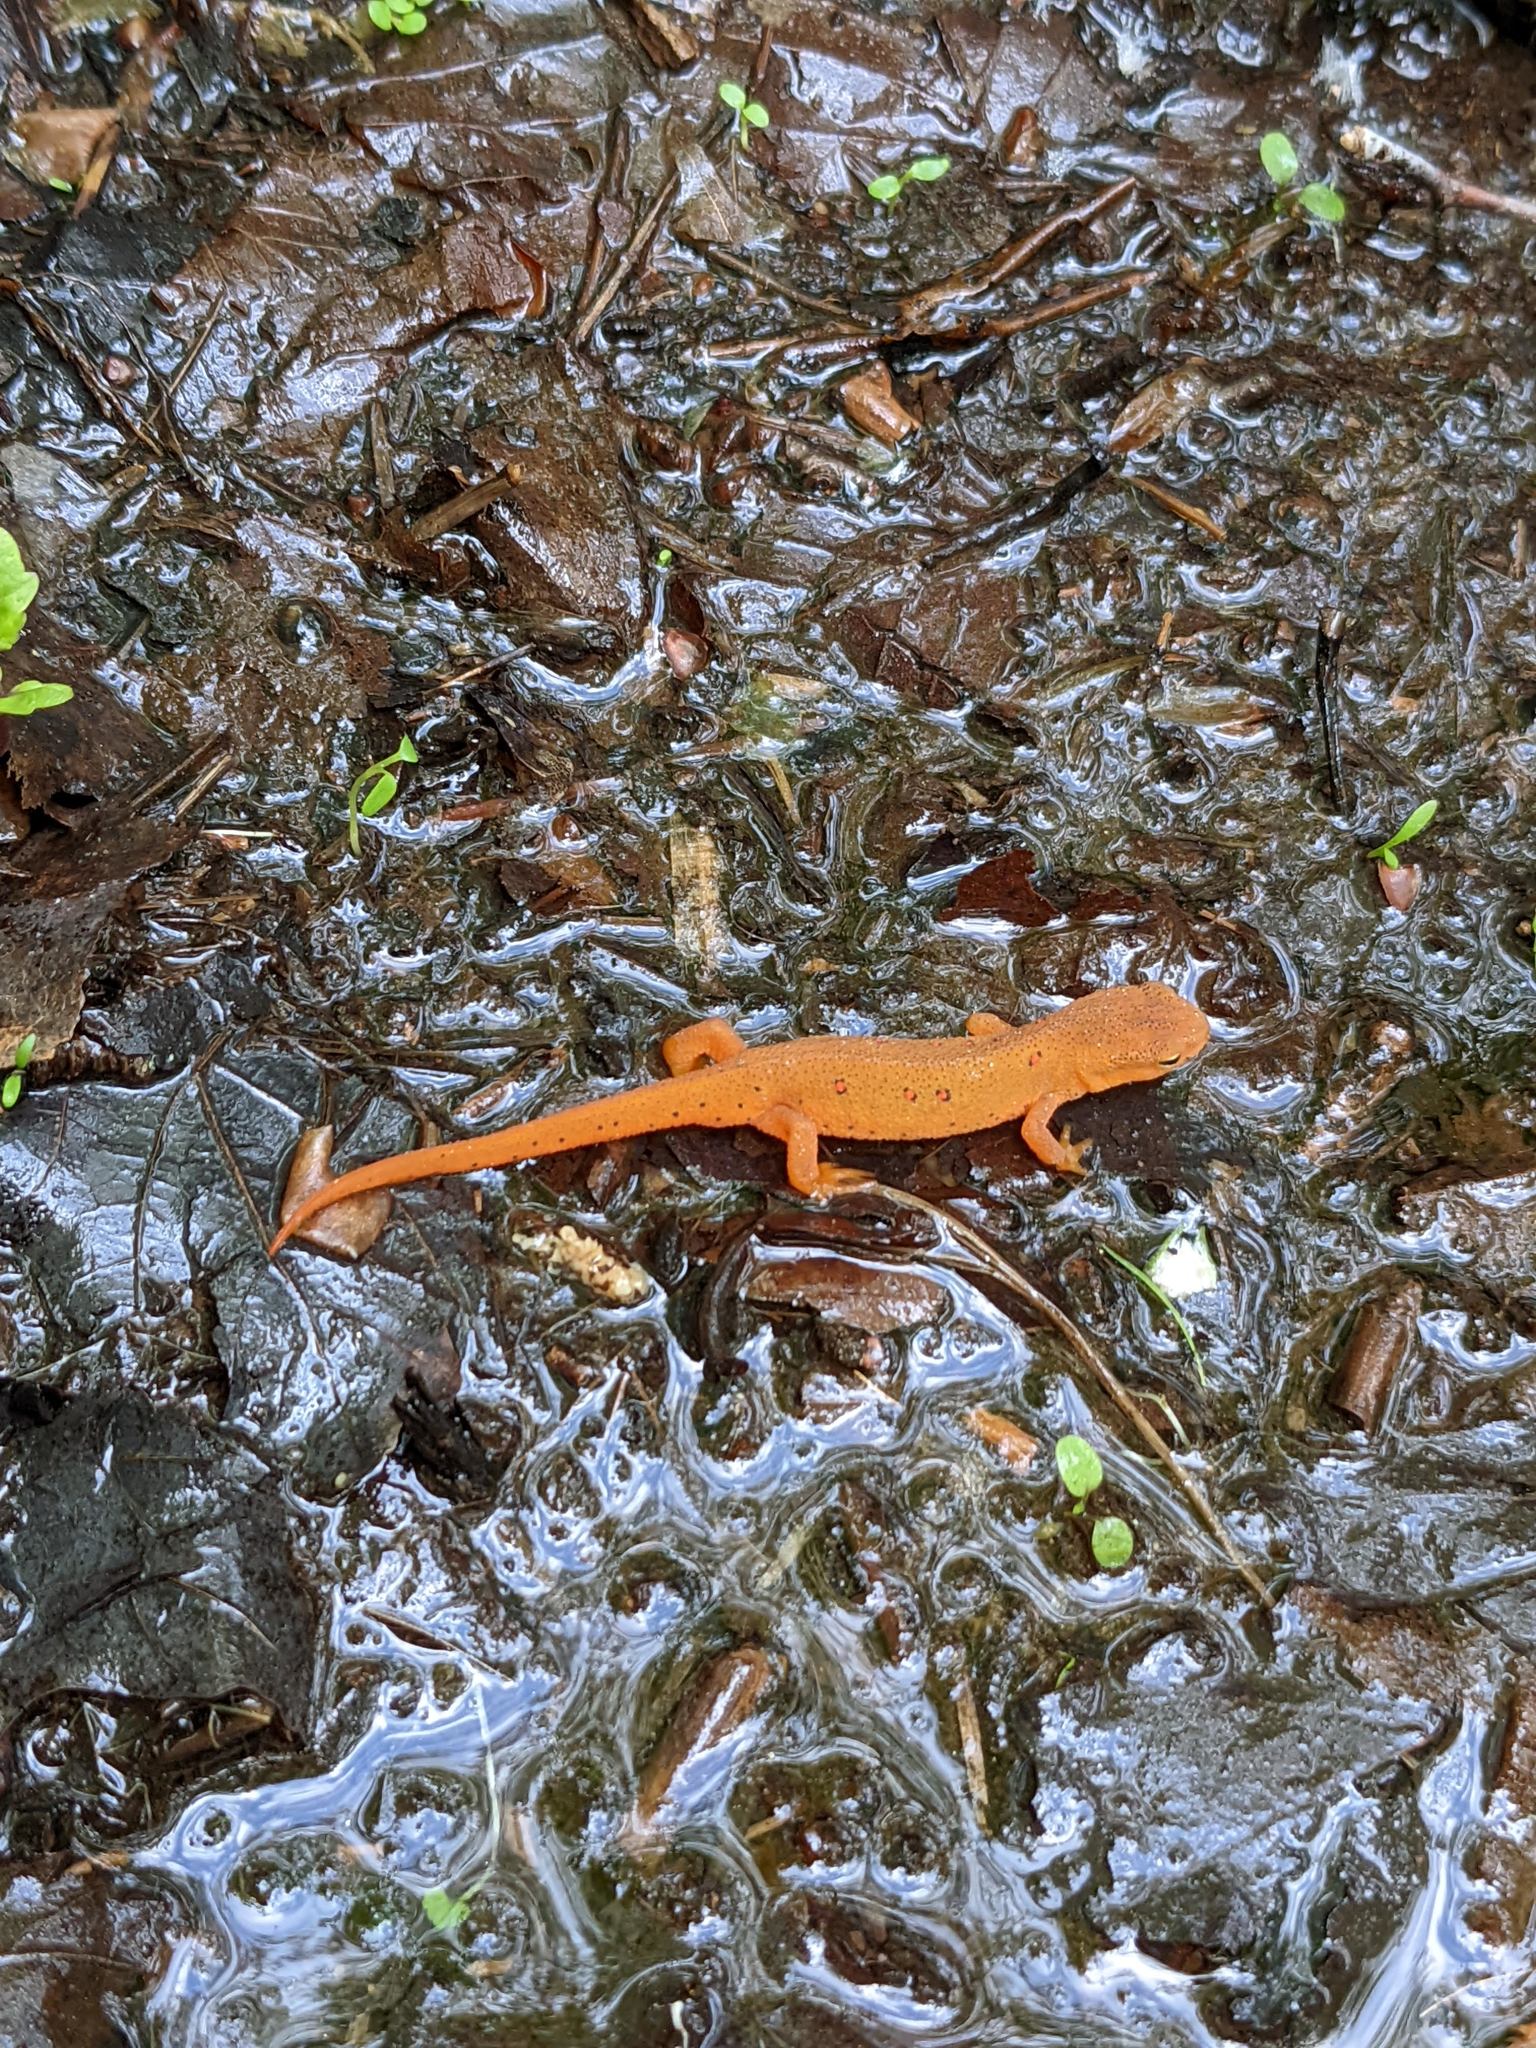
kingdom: Animalia
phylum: Chordata
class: Amphibia
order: Caudata
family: Salamandridae
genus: Notophthalmus
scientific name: Notophthalmus viridescens
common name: Eastern newt
